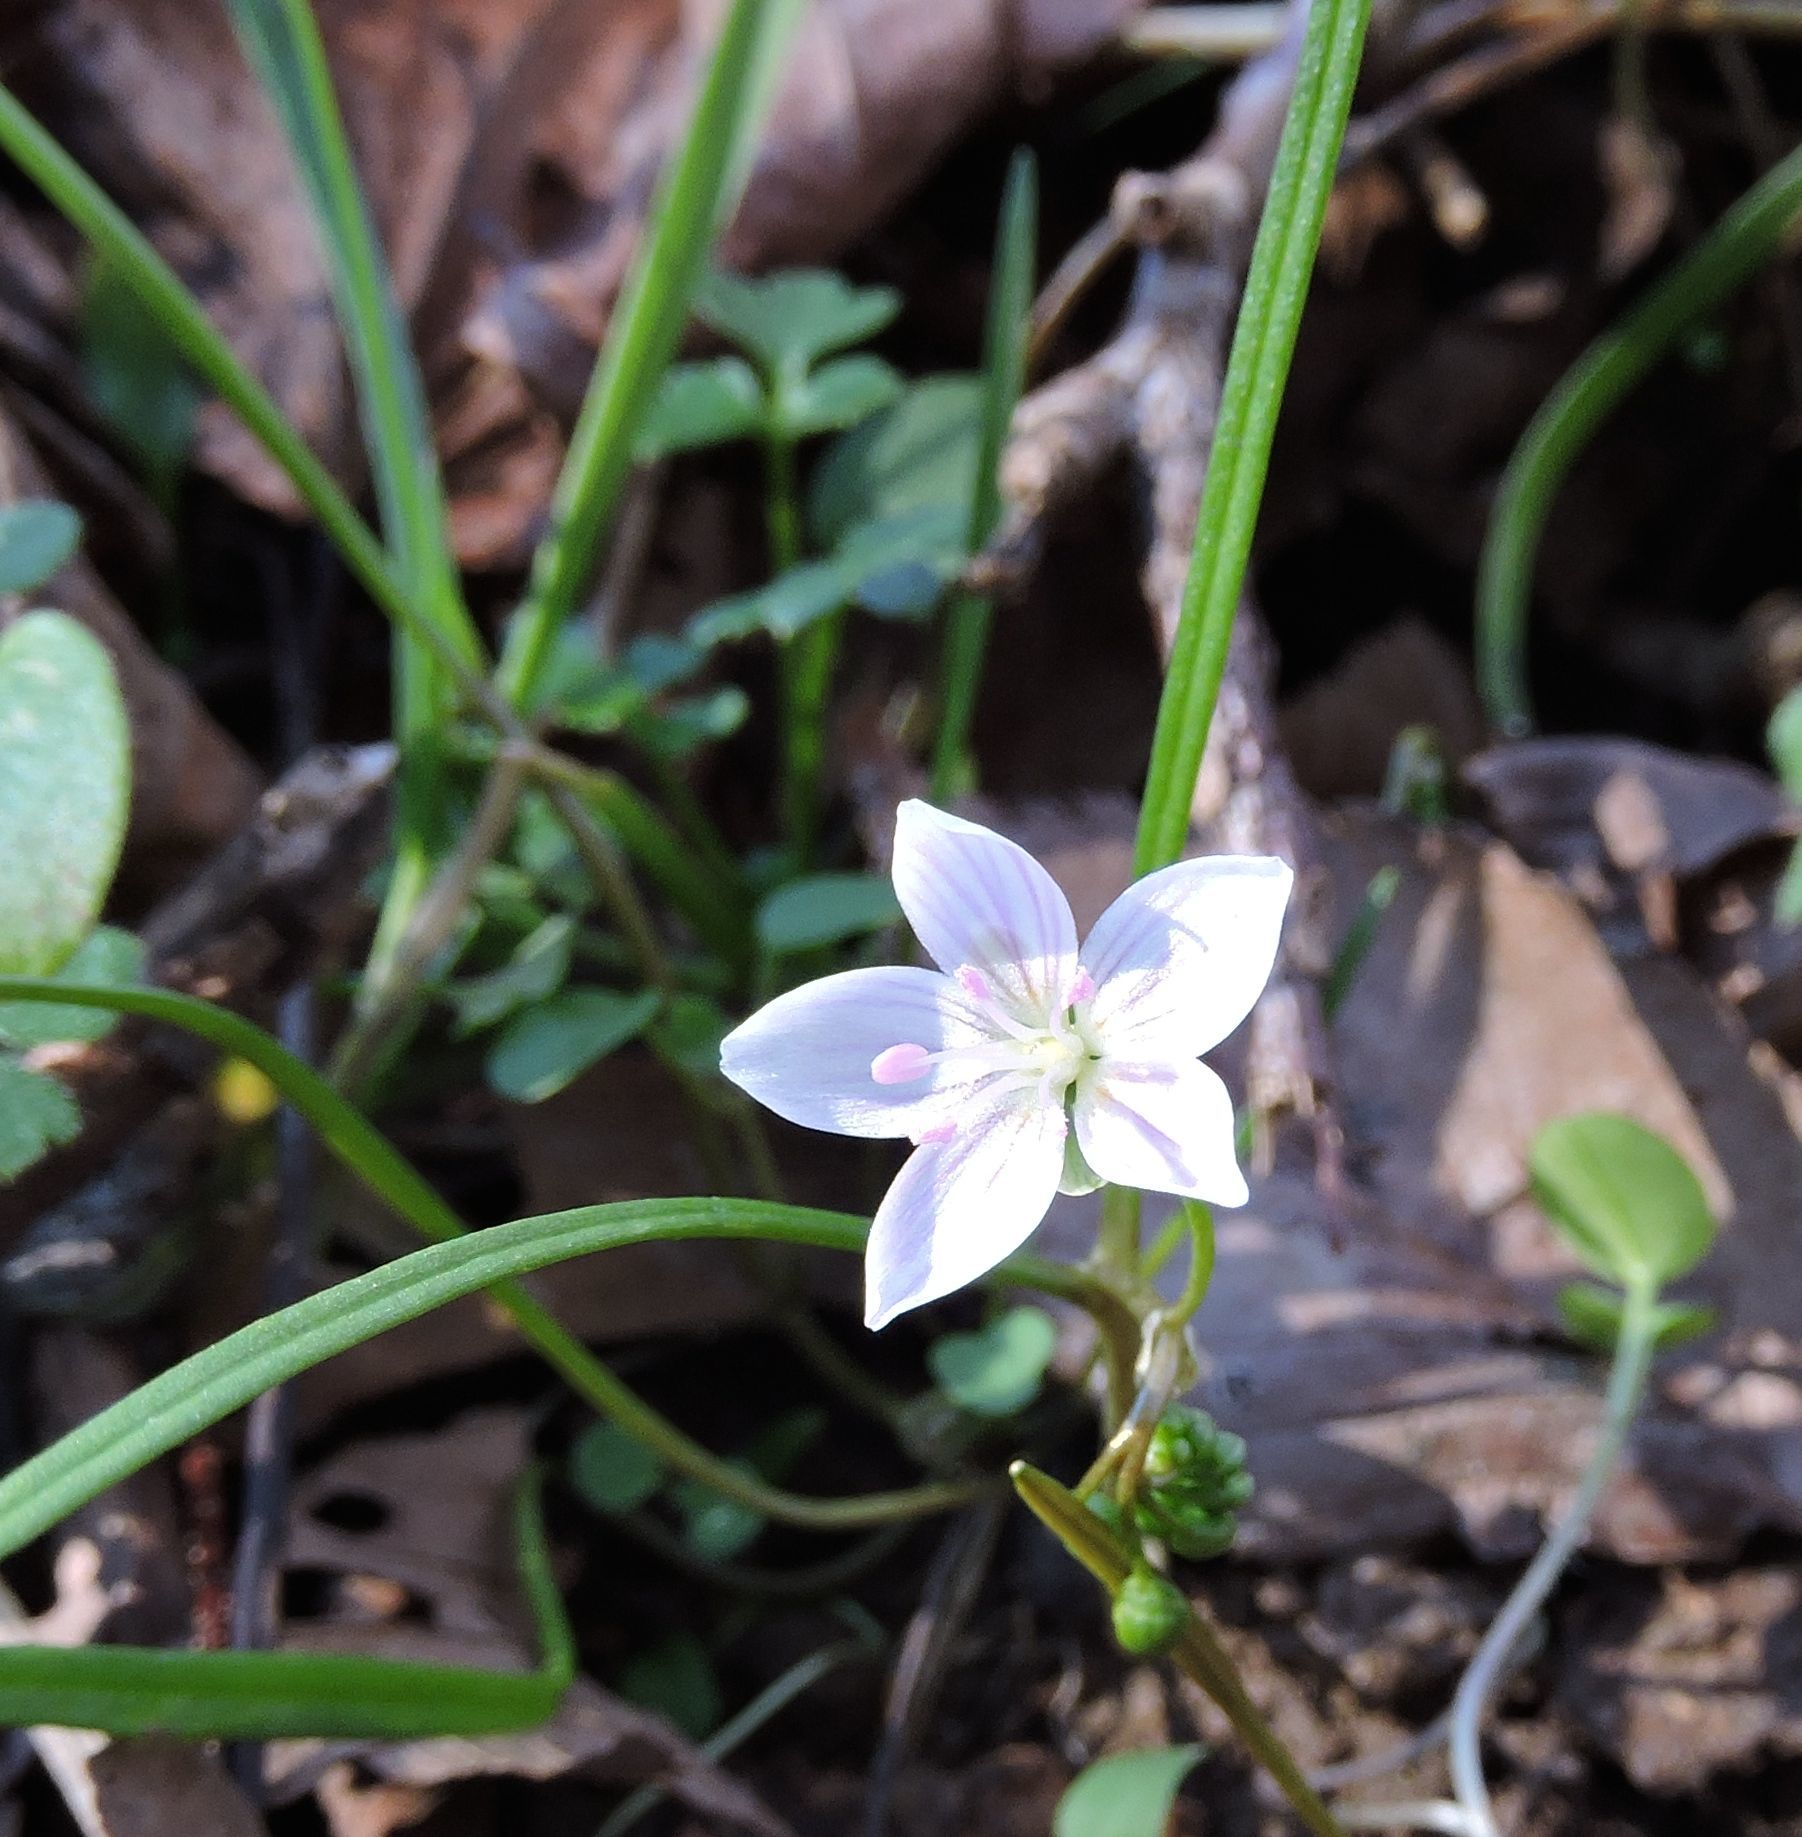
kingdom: Plantae
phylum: Tracheophyta
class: Magnoliopsida
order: Caryophyllales
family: Montiaceae
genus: Claytonia
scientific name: Claytonia virginica
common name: Virginia springbeauty
